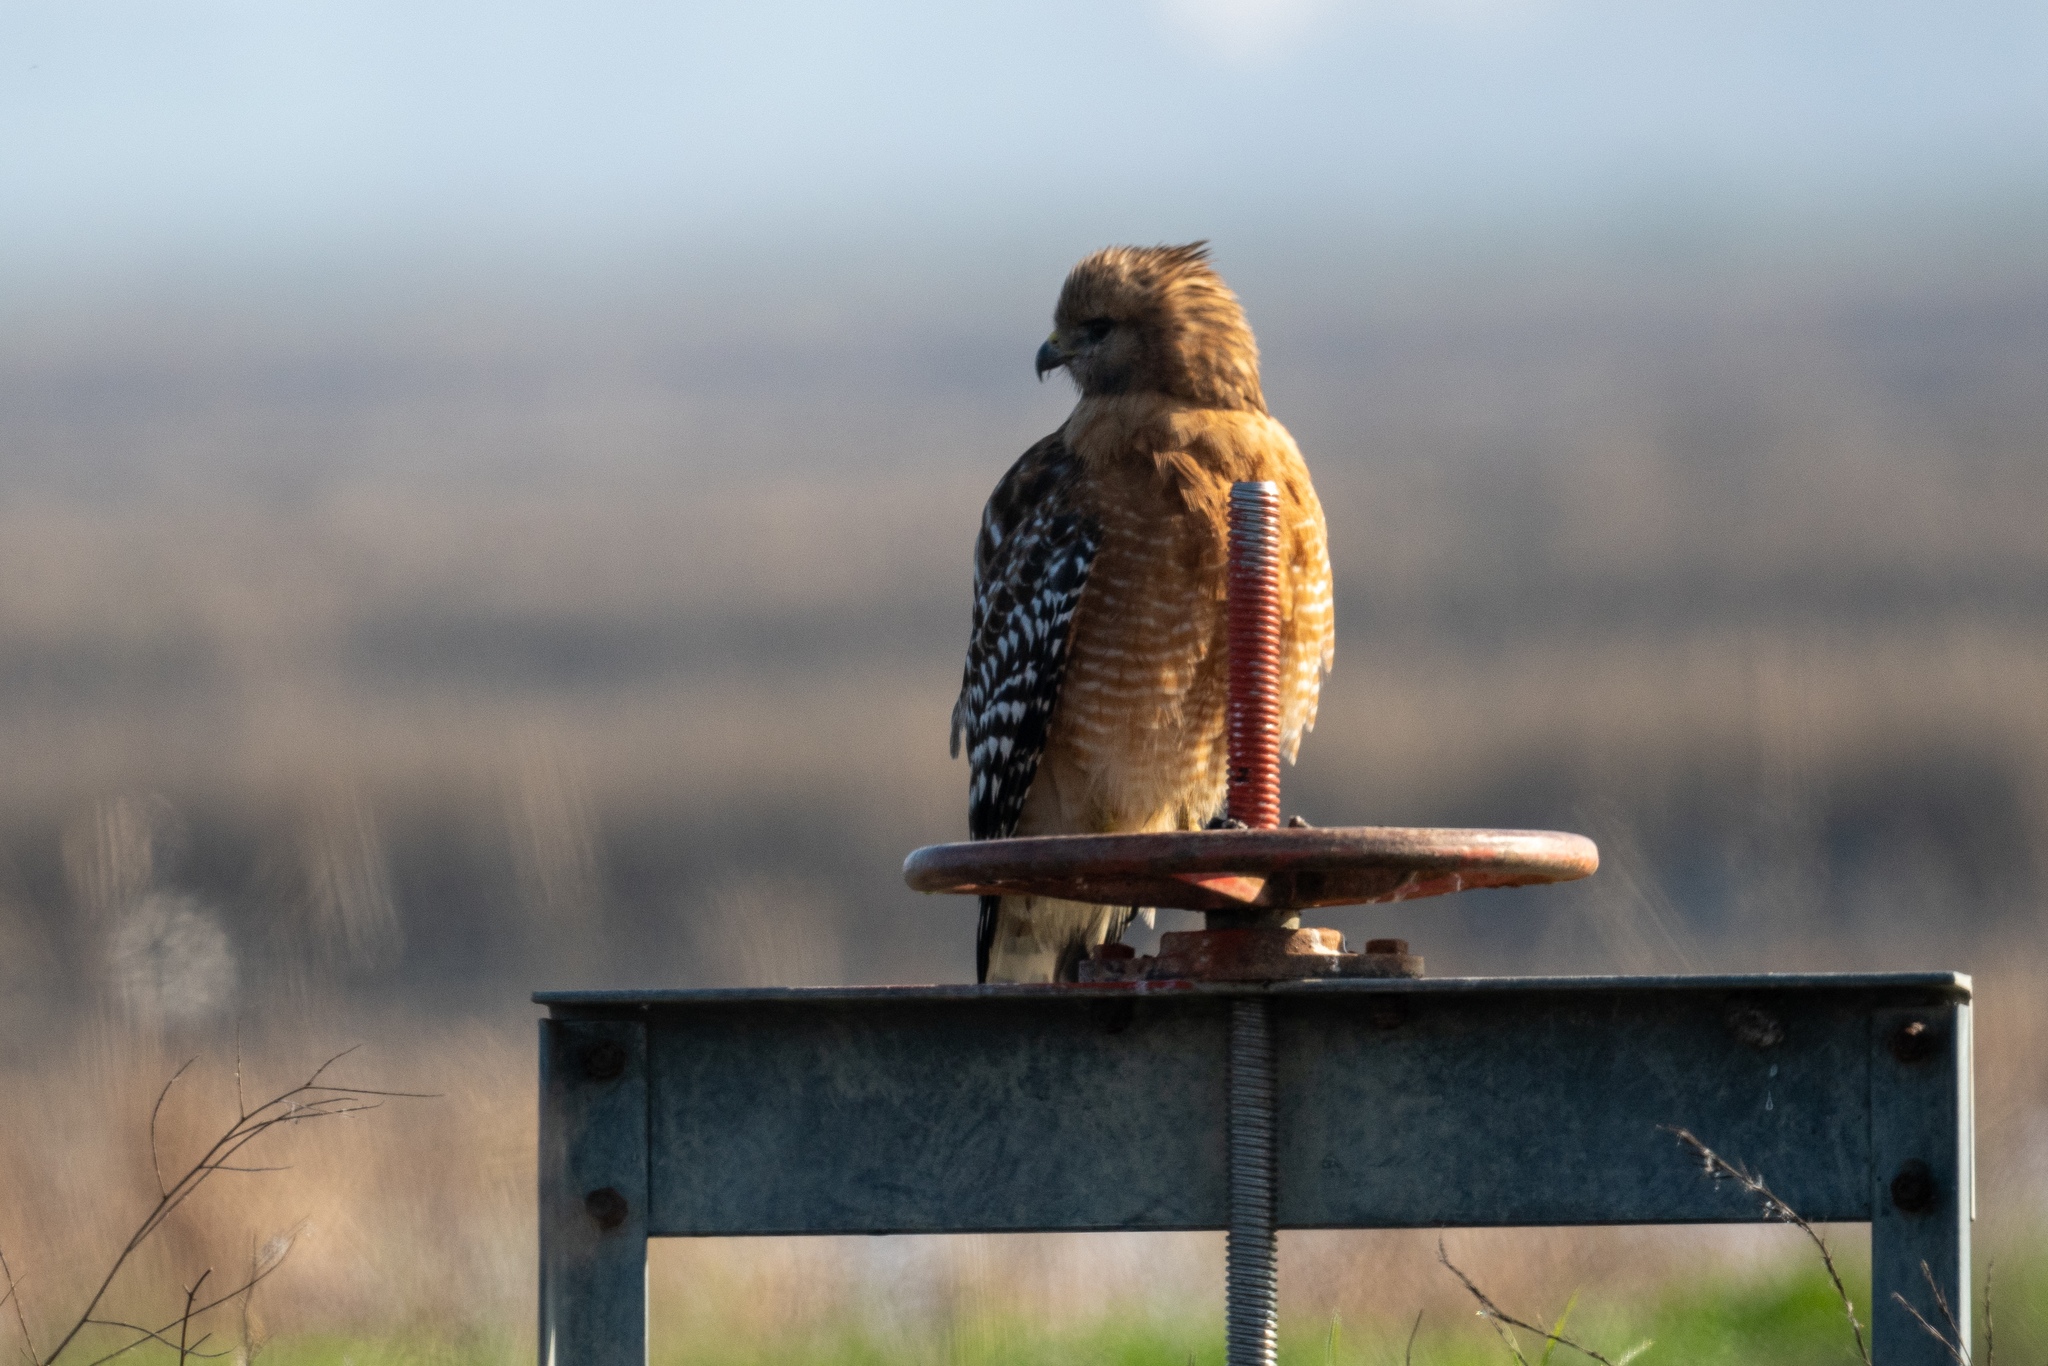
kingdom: Animalia
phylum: Chordata
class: Aves
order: Accipitriformes
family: Accipitridae
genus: Buteo
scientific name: Buteo lineatus
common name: Red-shouldered hawk
